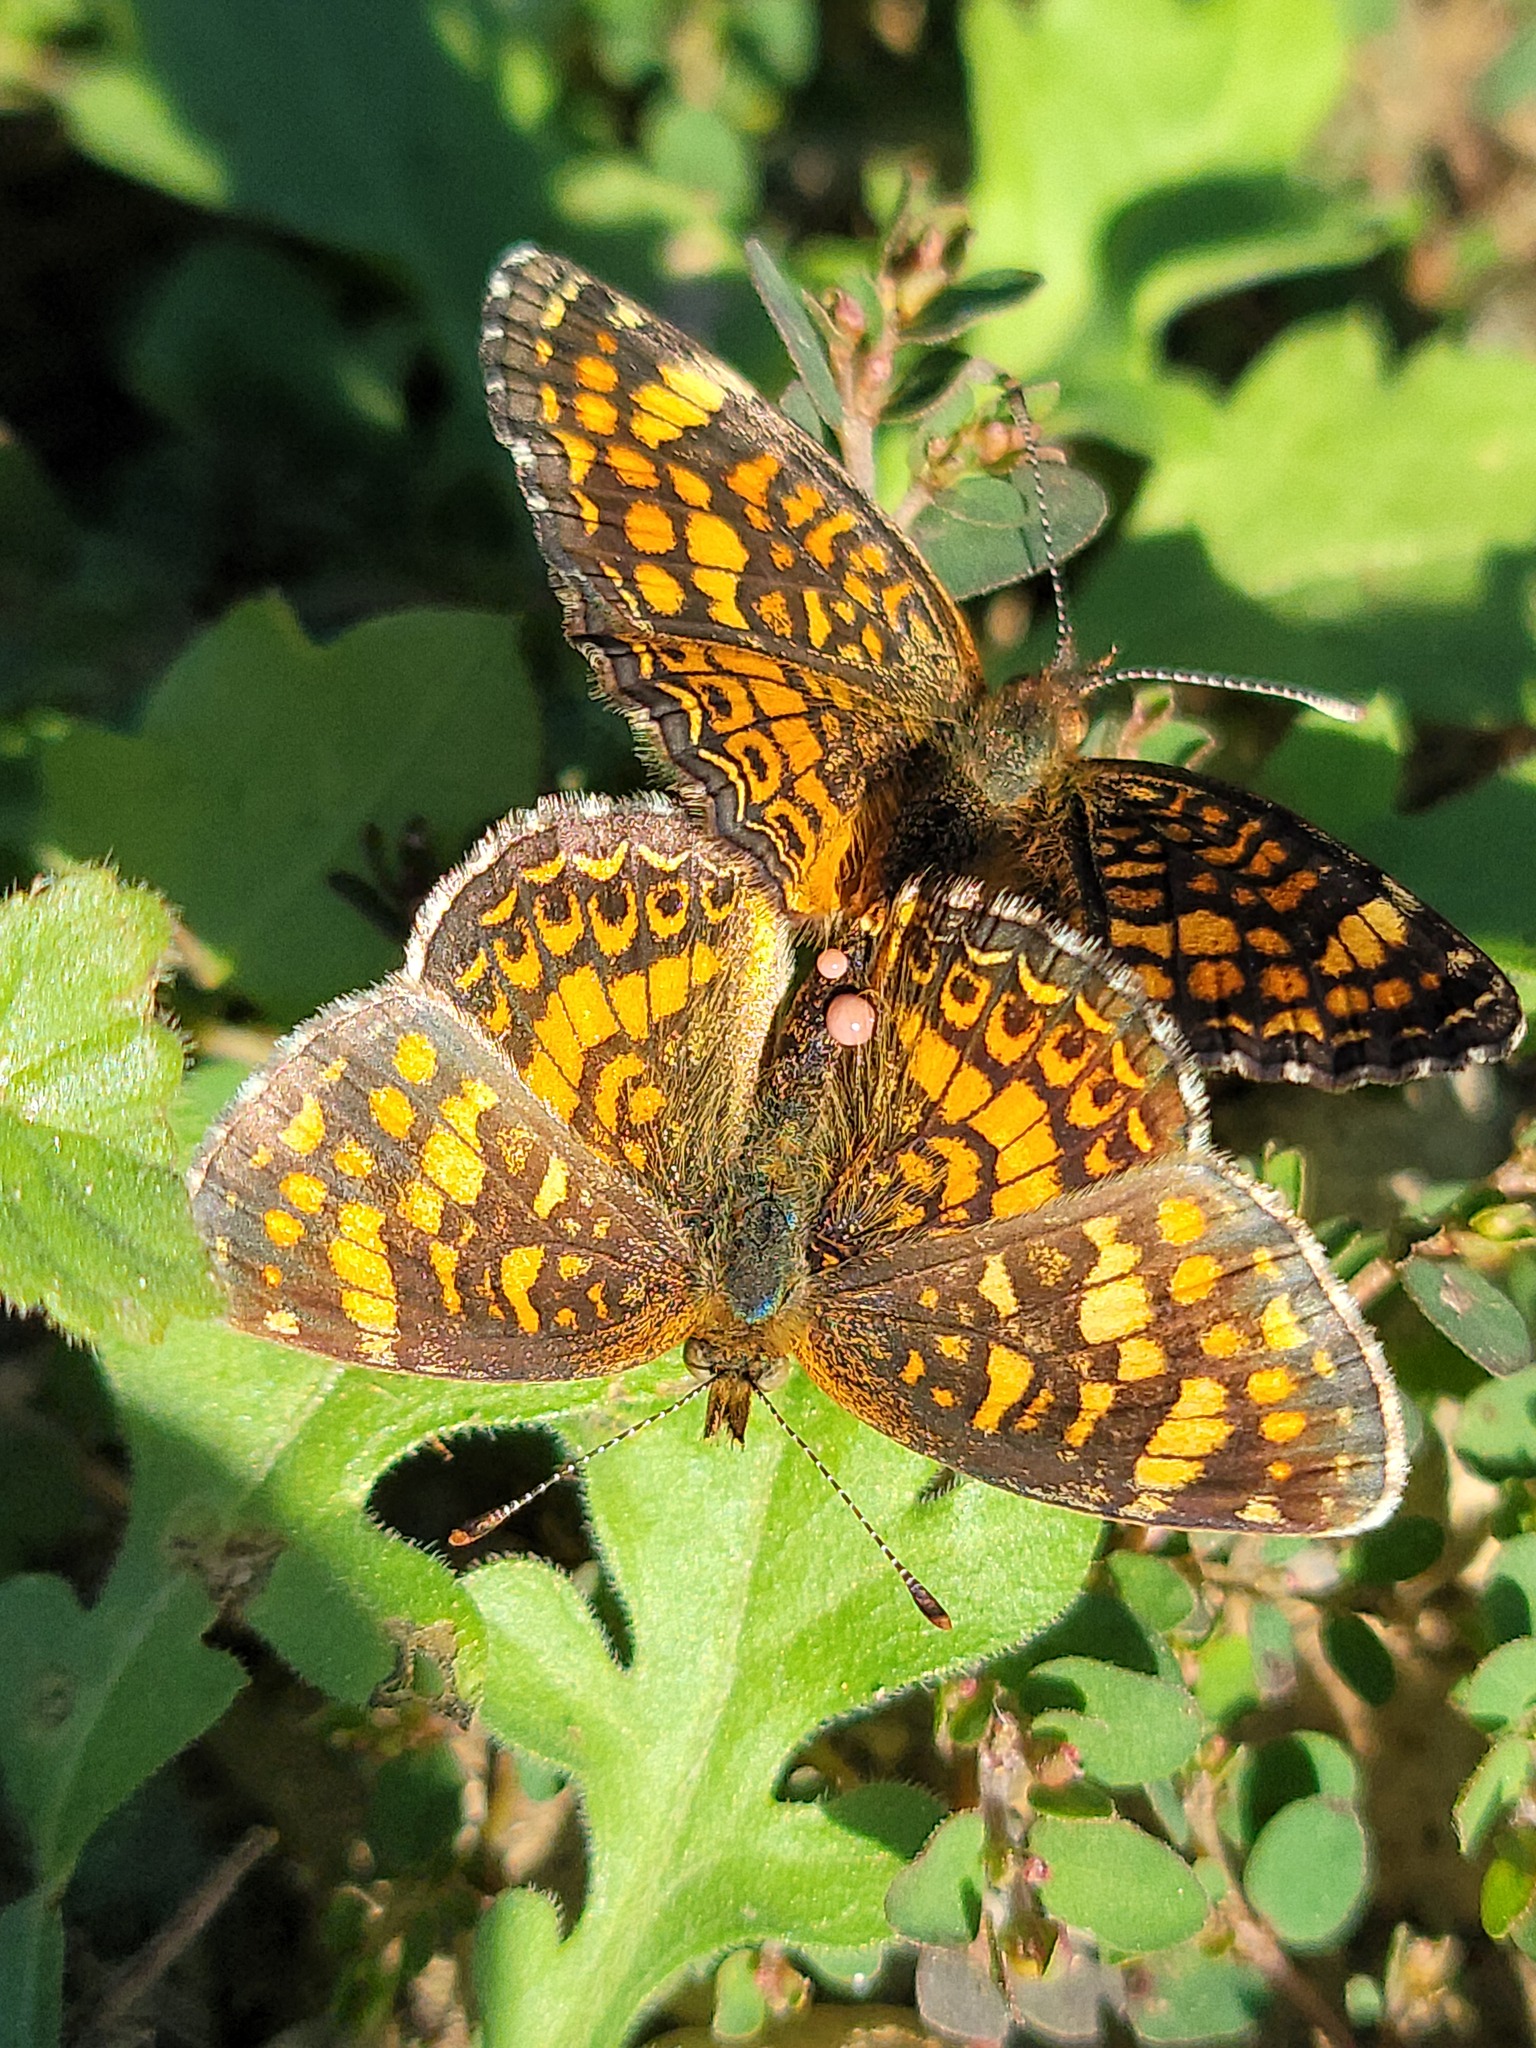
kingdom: Animalia
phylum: Arthropoda
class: Insecta
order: Lepidoptera
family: Nymphalidae
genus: Phyciodes
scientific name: Phyciodes vesta
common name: Vesta crescent
